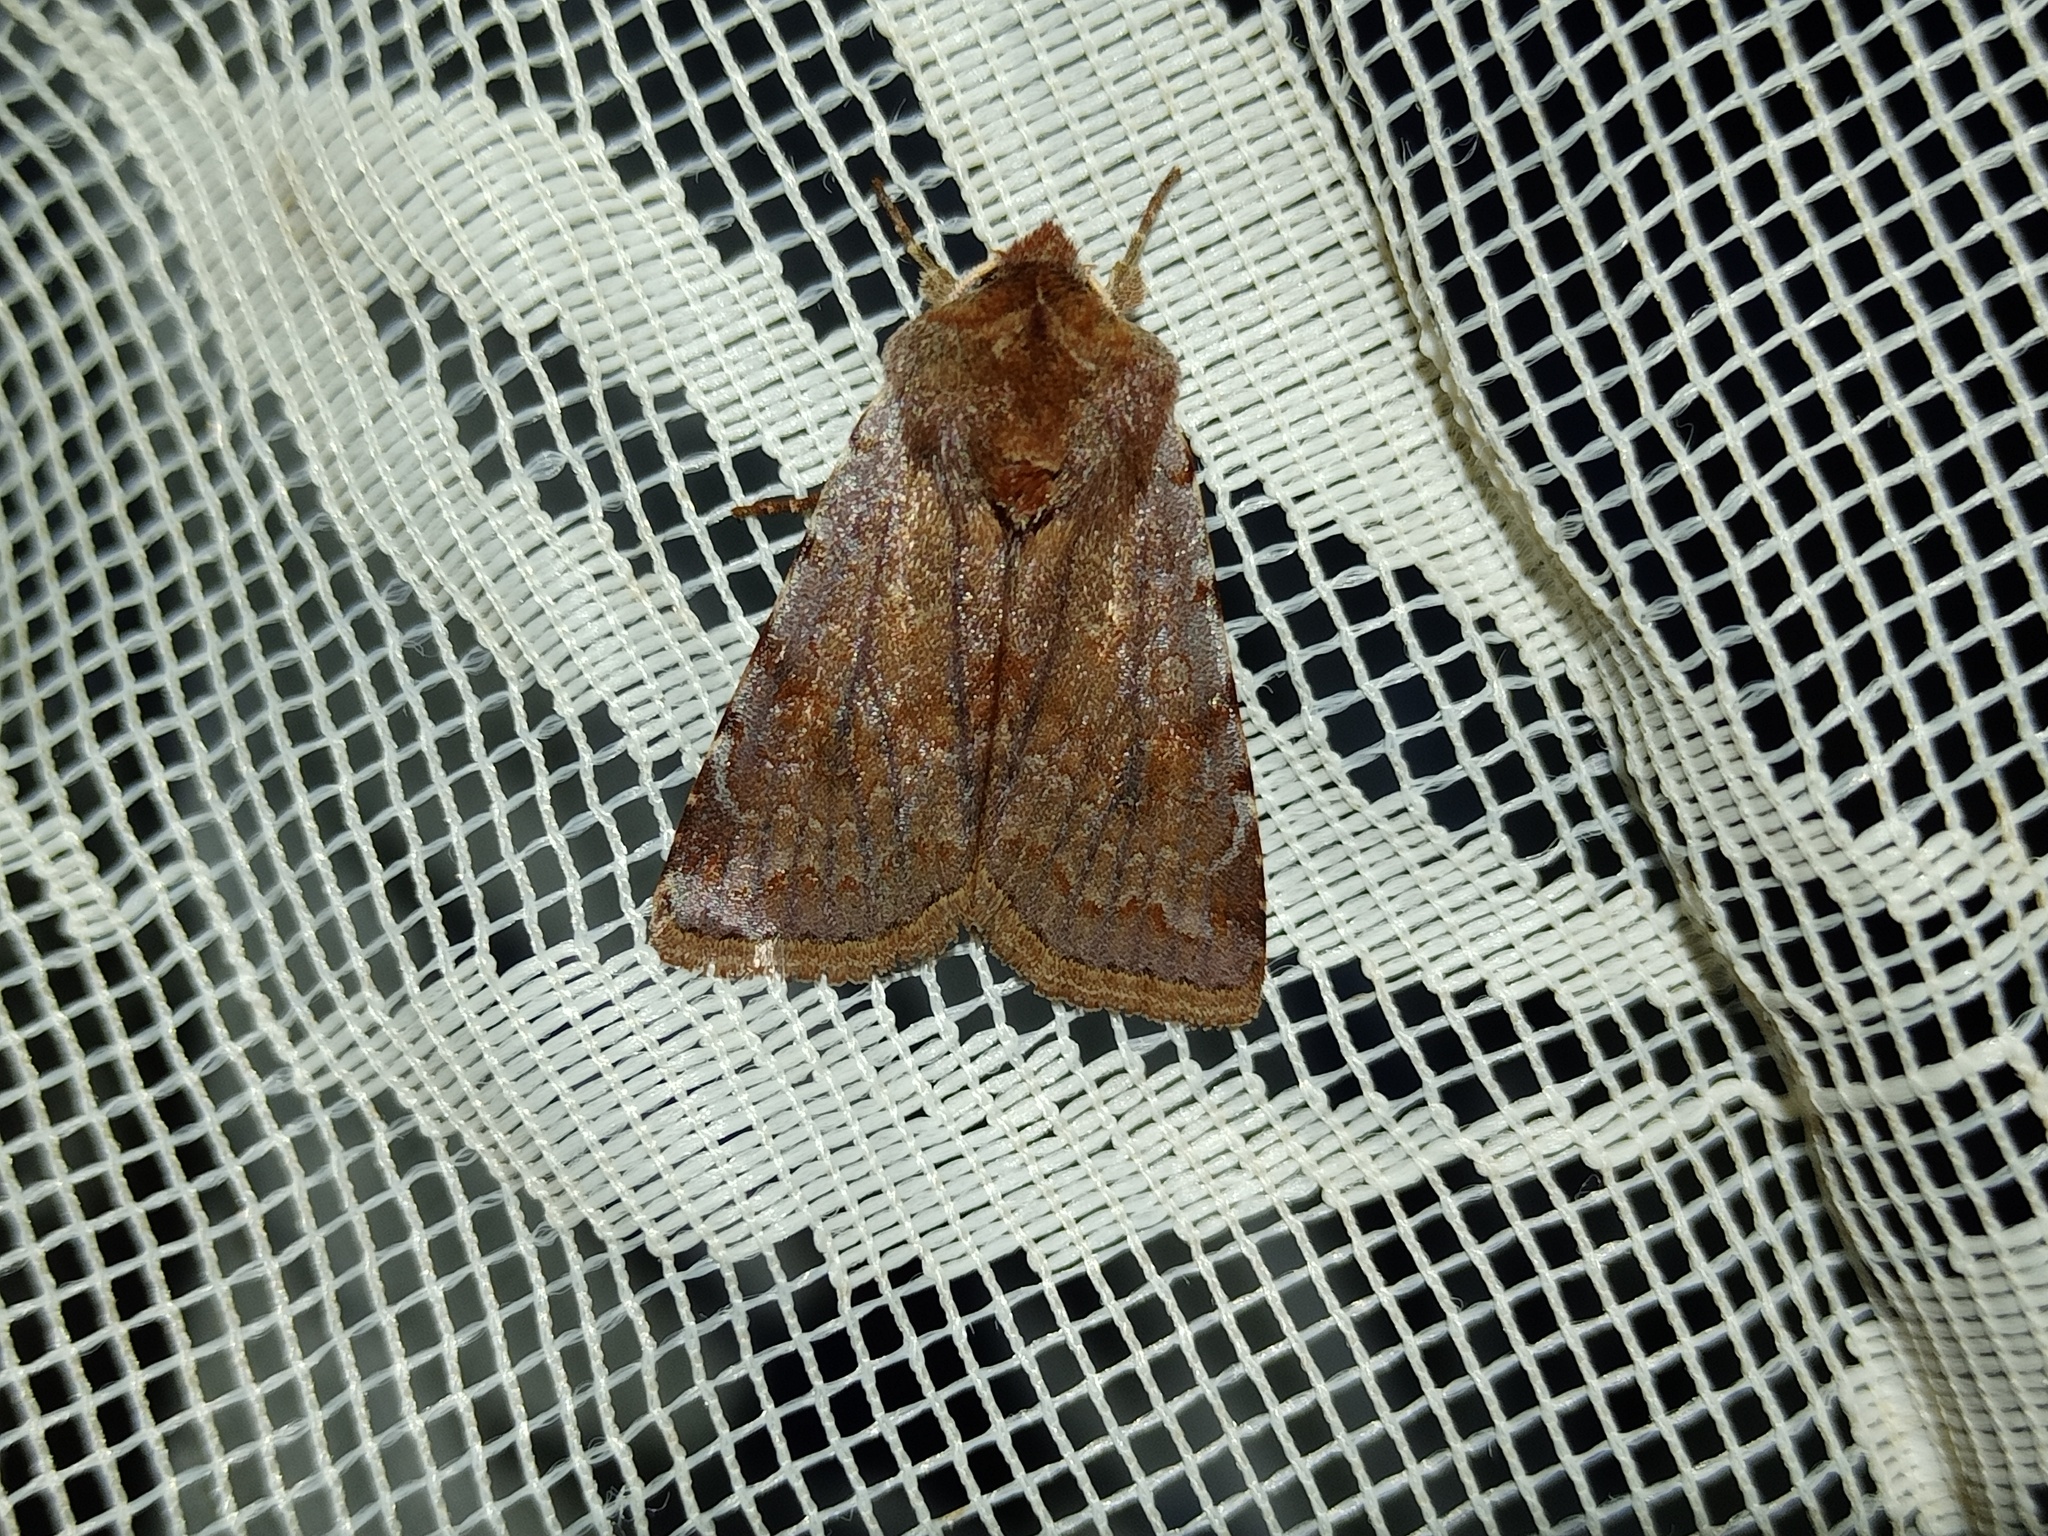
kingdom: Animalia
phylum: Arthropoda
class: Insecta
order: Lepidoptera
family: Noctuidae
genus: Cerastis
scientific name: Cerastis rubricosa
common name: Red chestnut
